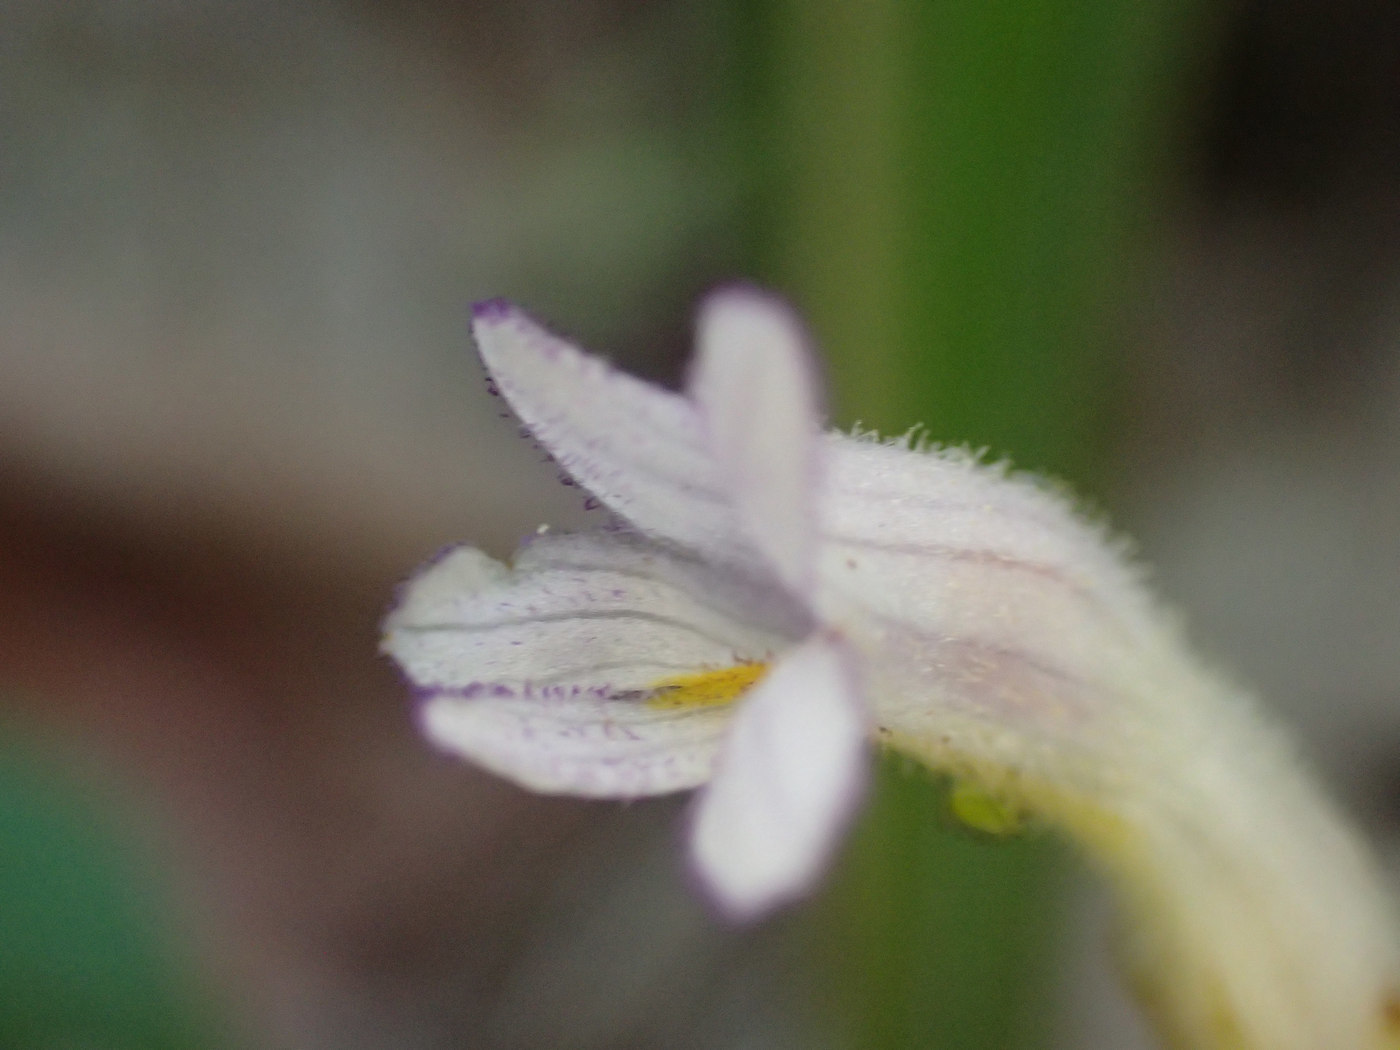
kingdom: Plantae
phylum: Tracheophyta
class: Magnoliopsida
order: Lamiales
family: Orobanchaceae
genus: Aphyllon
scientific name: Aphyllon uniflorum
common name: One-flowered broomrape
